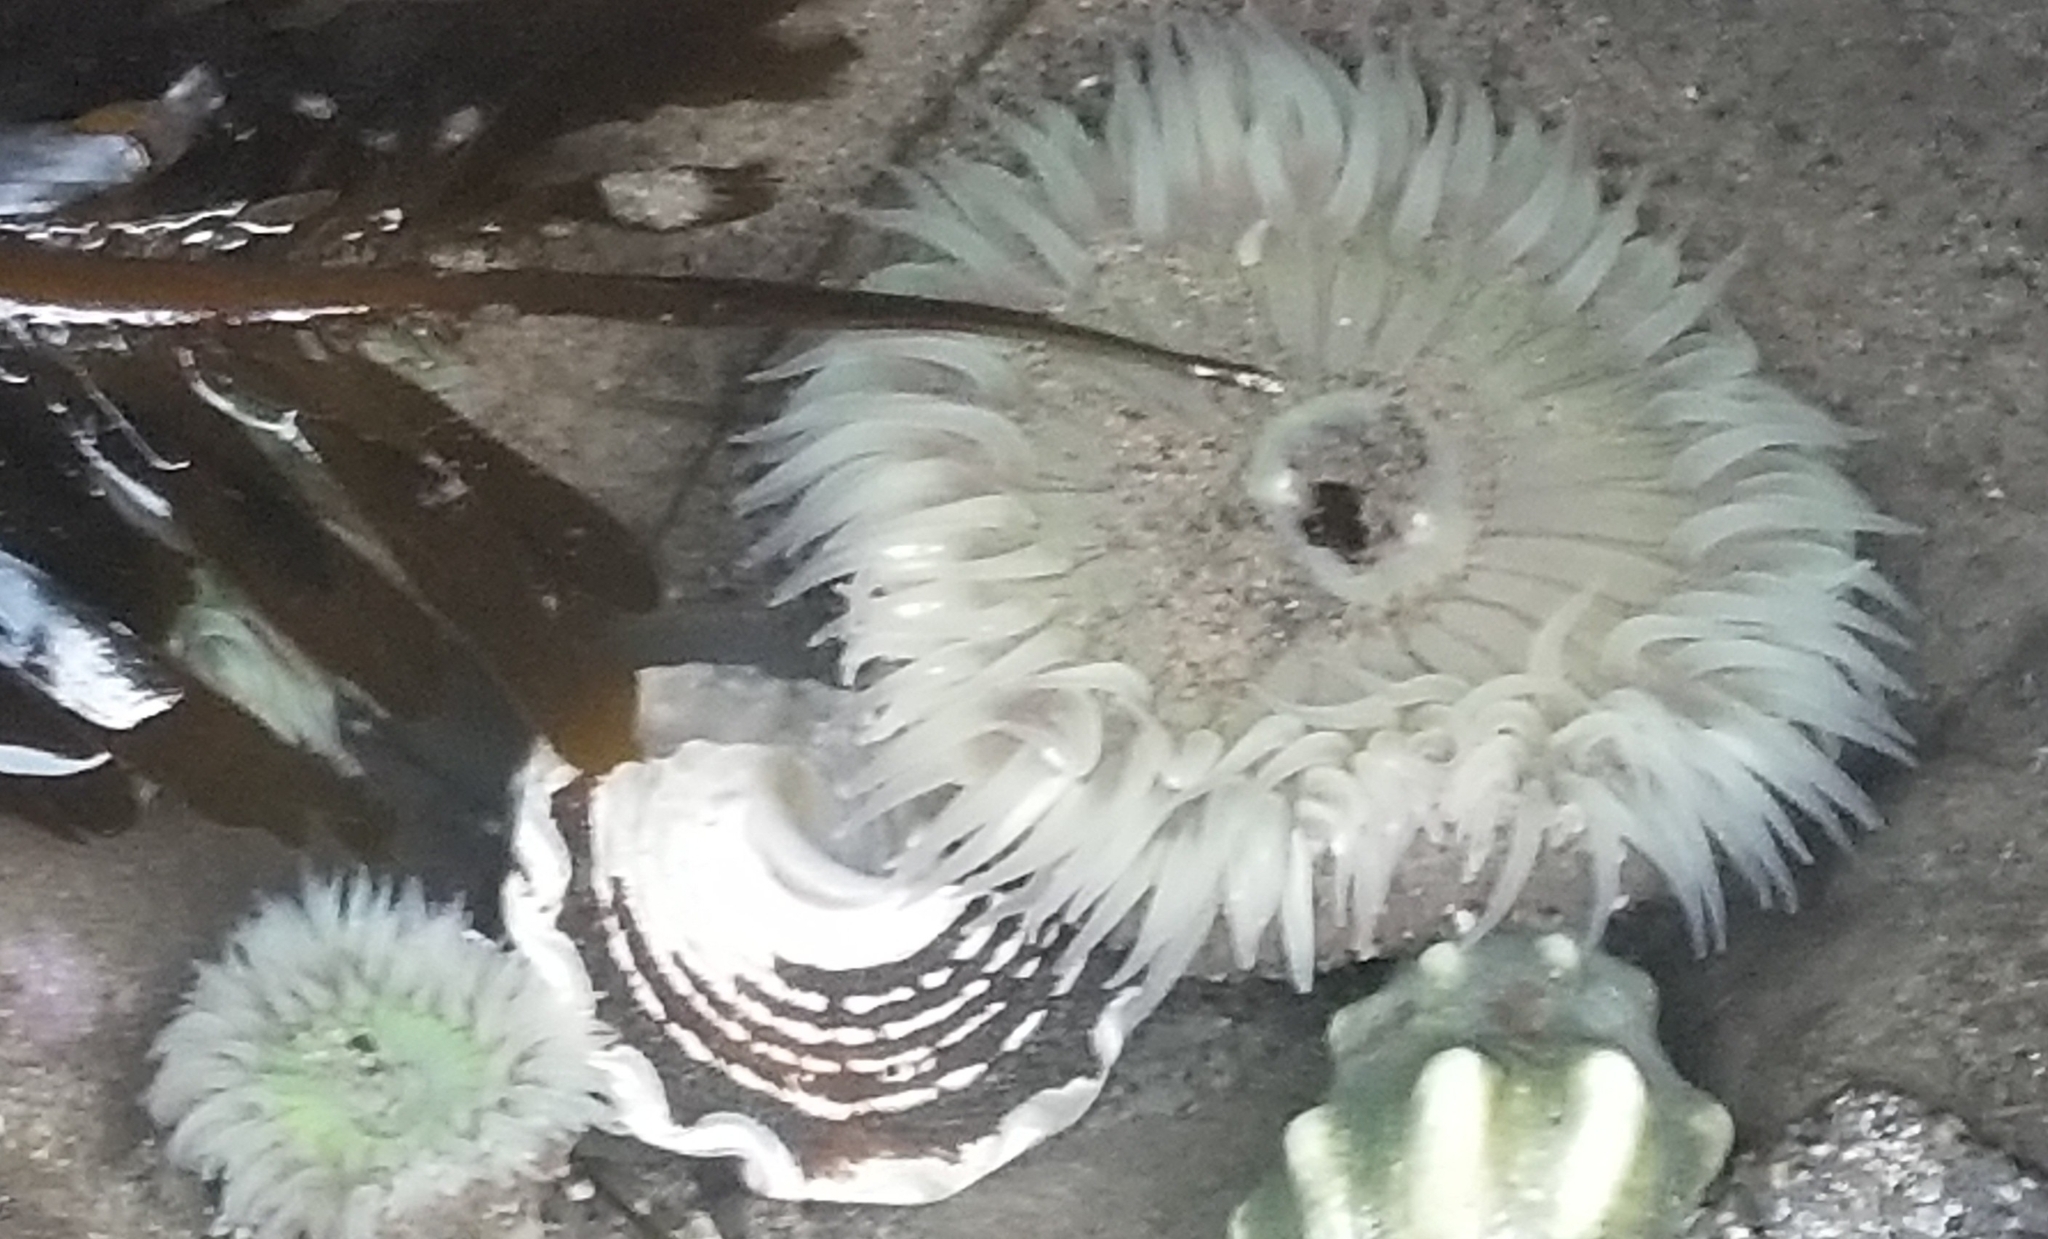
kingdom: Animalia
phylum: Cnidaria
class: Anthozoa
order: Actiniaria
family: Actiniidae
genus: Anthopleura
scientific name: Anthopleura sola
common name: Sun anemone
